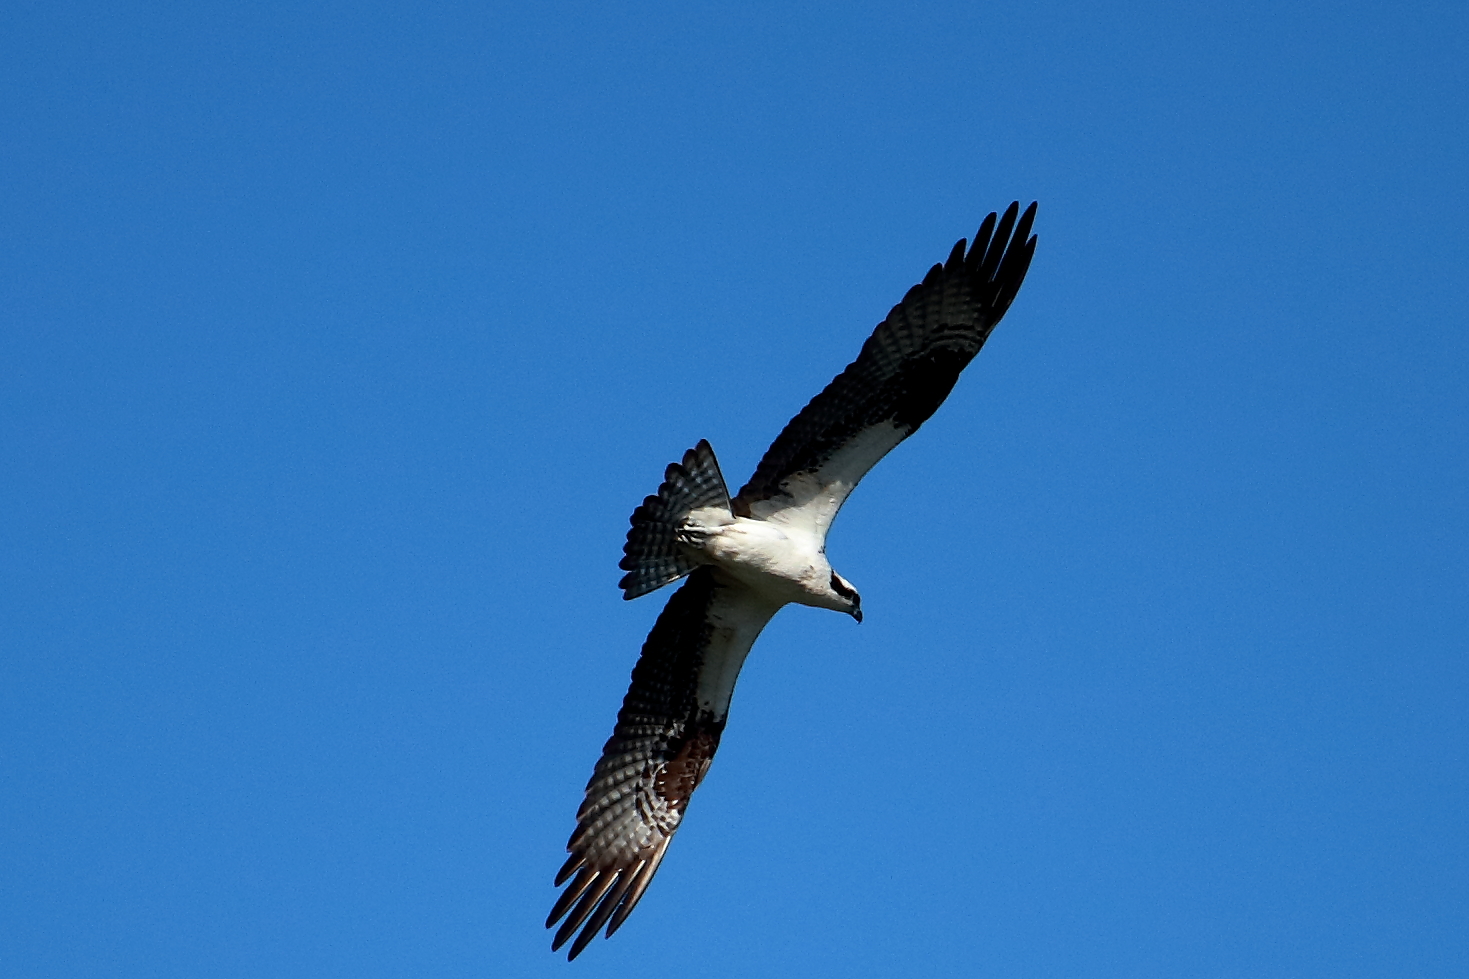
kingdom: Animalia
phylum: Chordata
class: Aves
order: Accipitriformes
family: Pandionidae
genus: Pandion
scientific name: Pandion haliaetus
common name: Osprey
